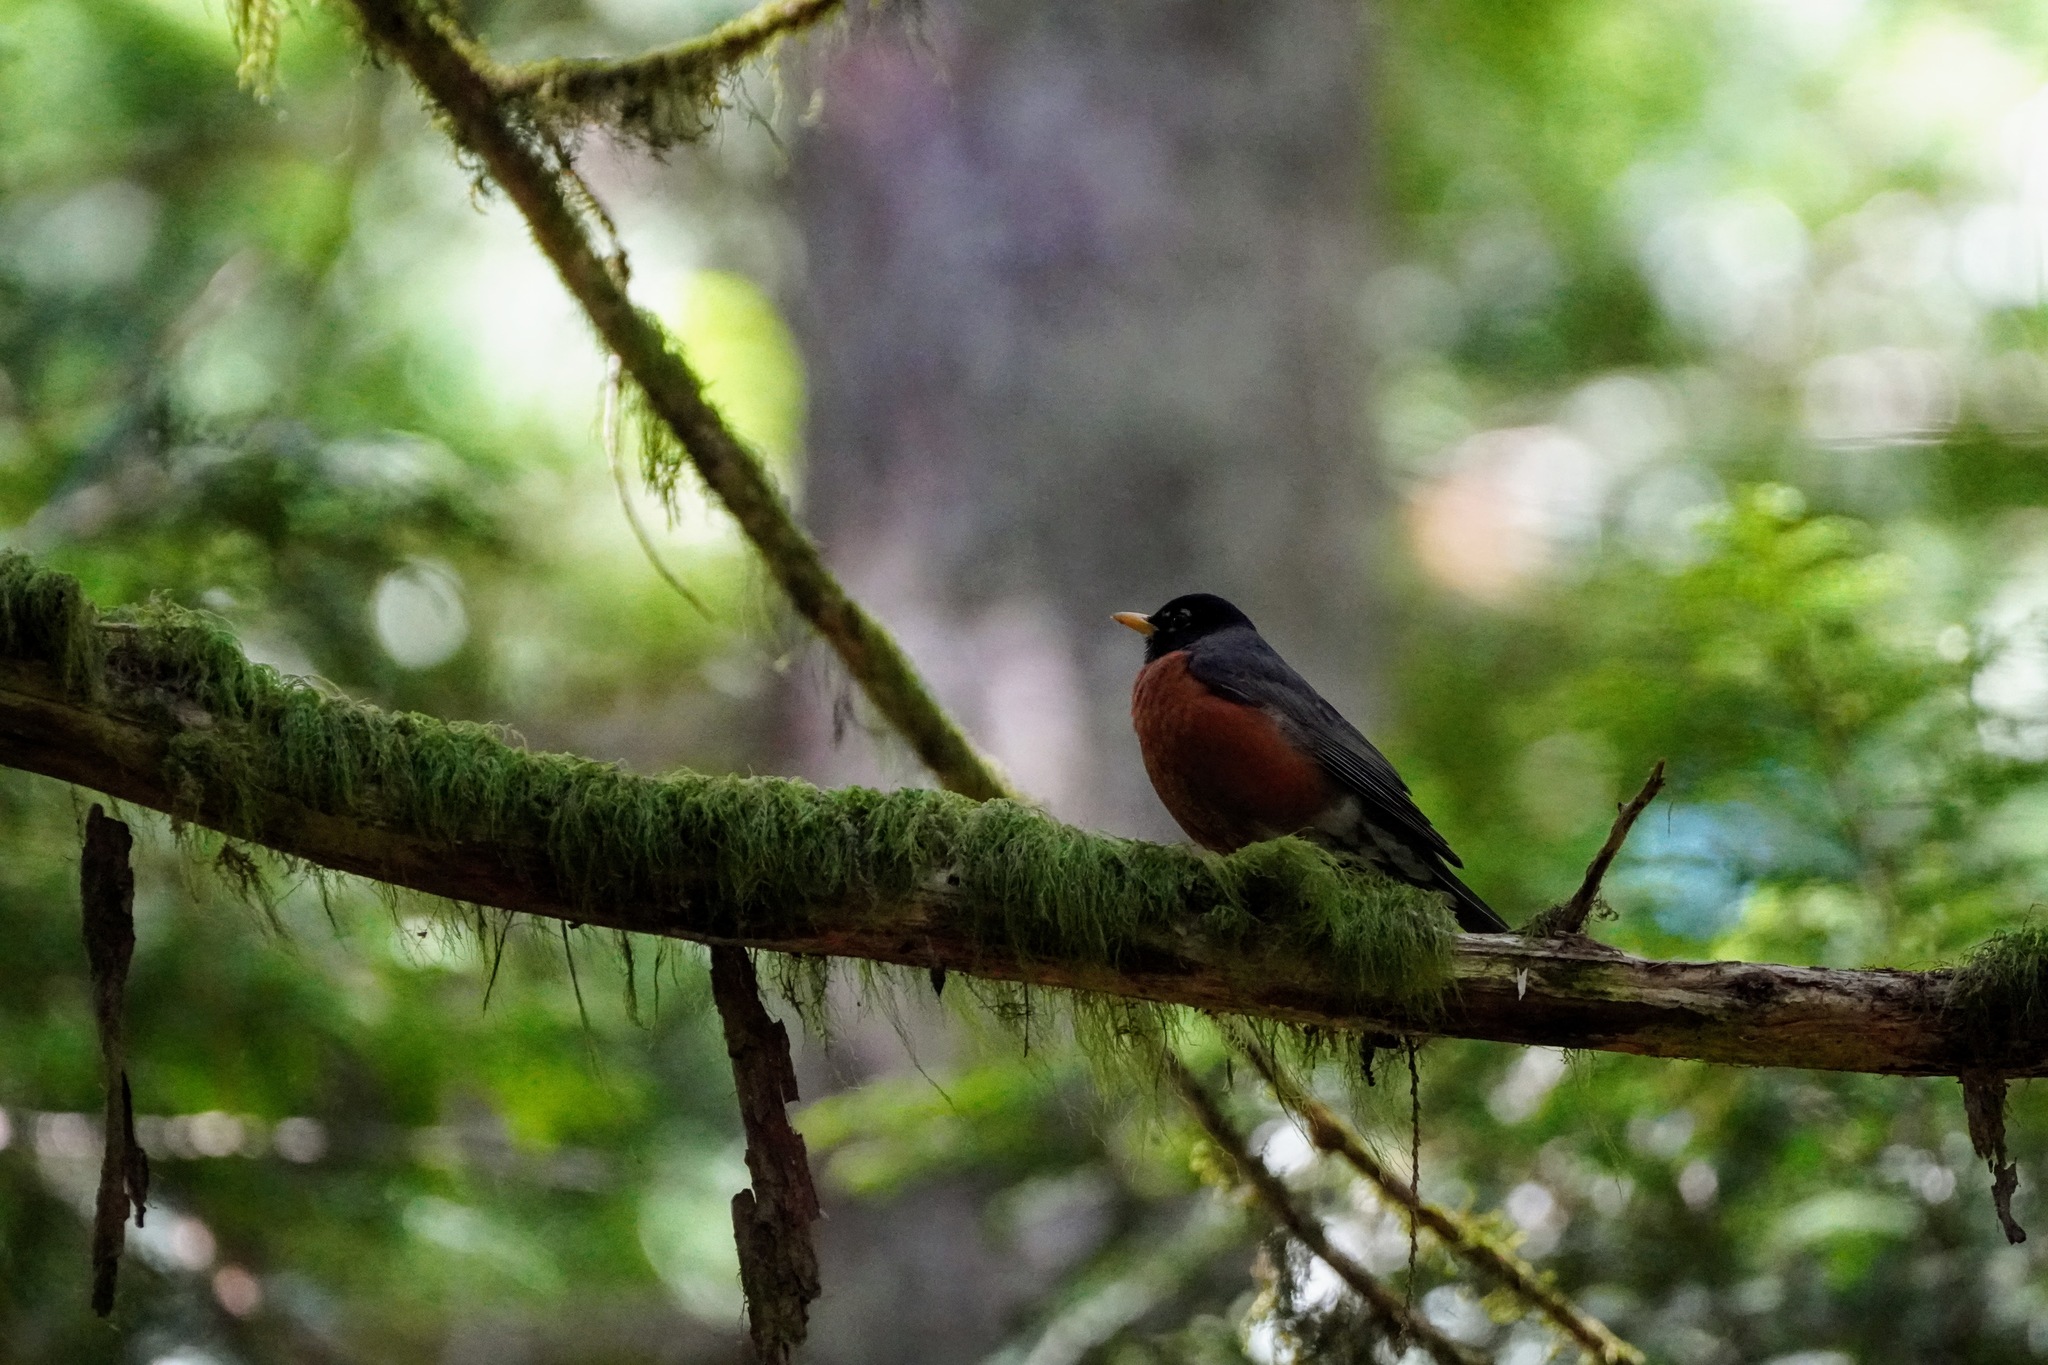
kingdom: Animalia
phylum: Chordata
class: Aves
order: Passeriformes
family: Turdidae
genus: Turdus
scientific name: Turdus migratorius
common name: American robin
